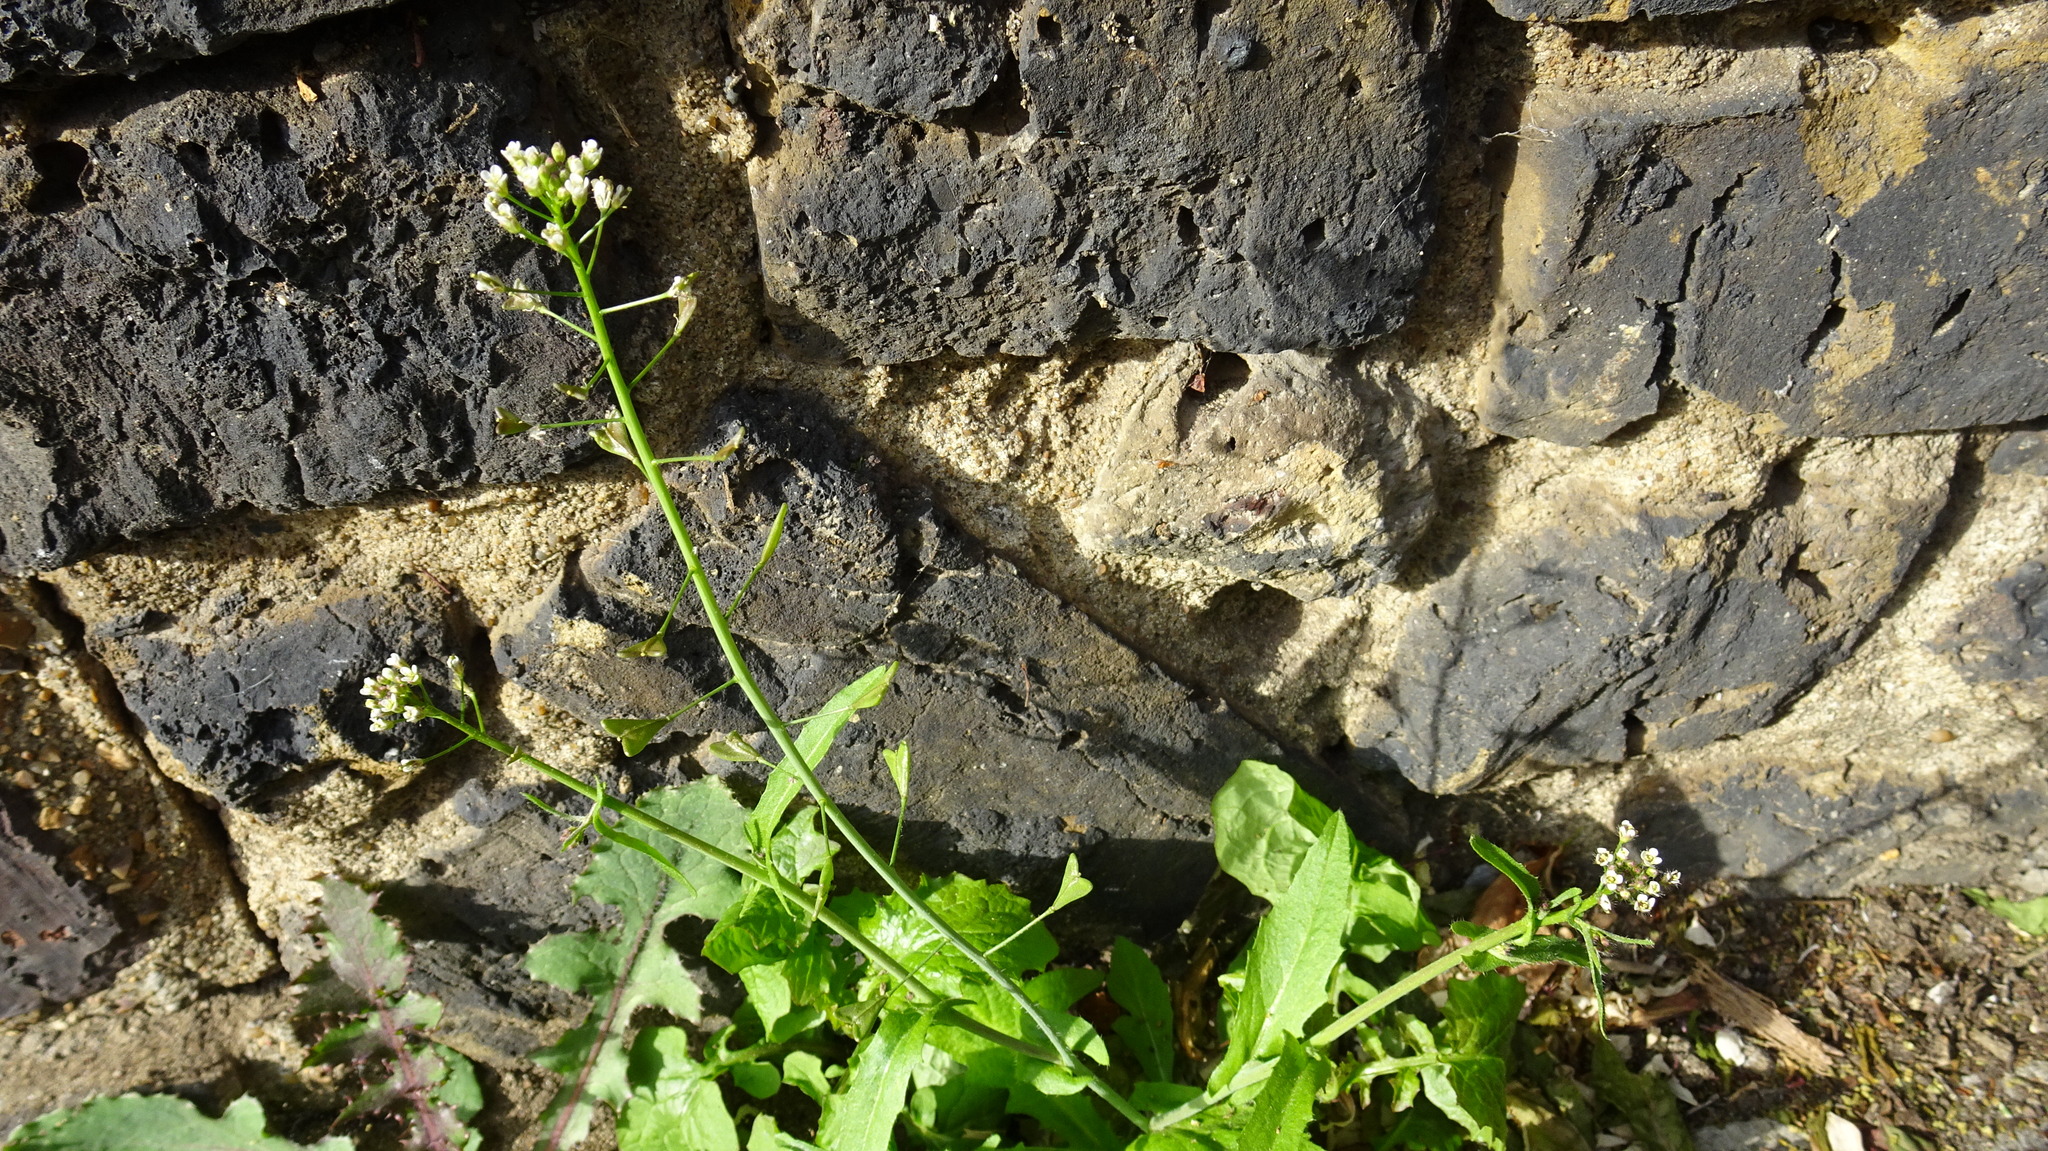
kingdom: Plantae
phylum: Tracheophyta
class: Magnoliopsida
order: Brassicales
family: Brassicaceae
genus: Capsella
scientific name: Capsella bursa-pastoris
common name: Shepherd's purse
